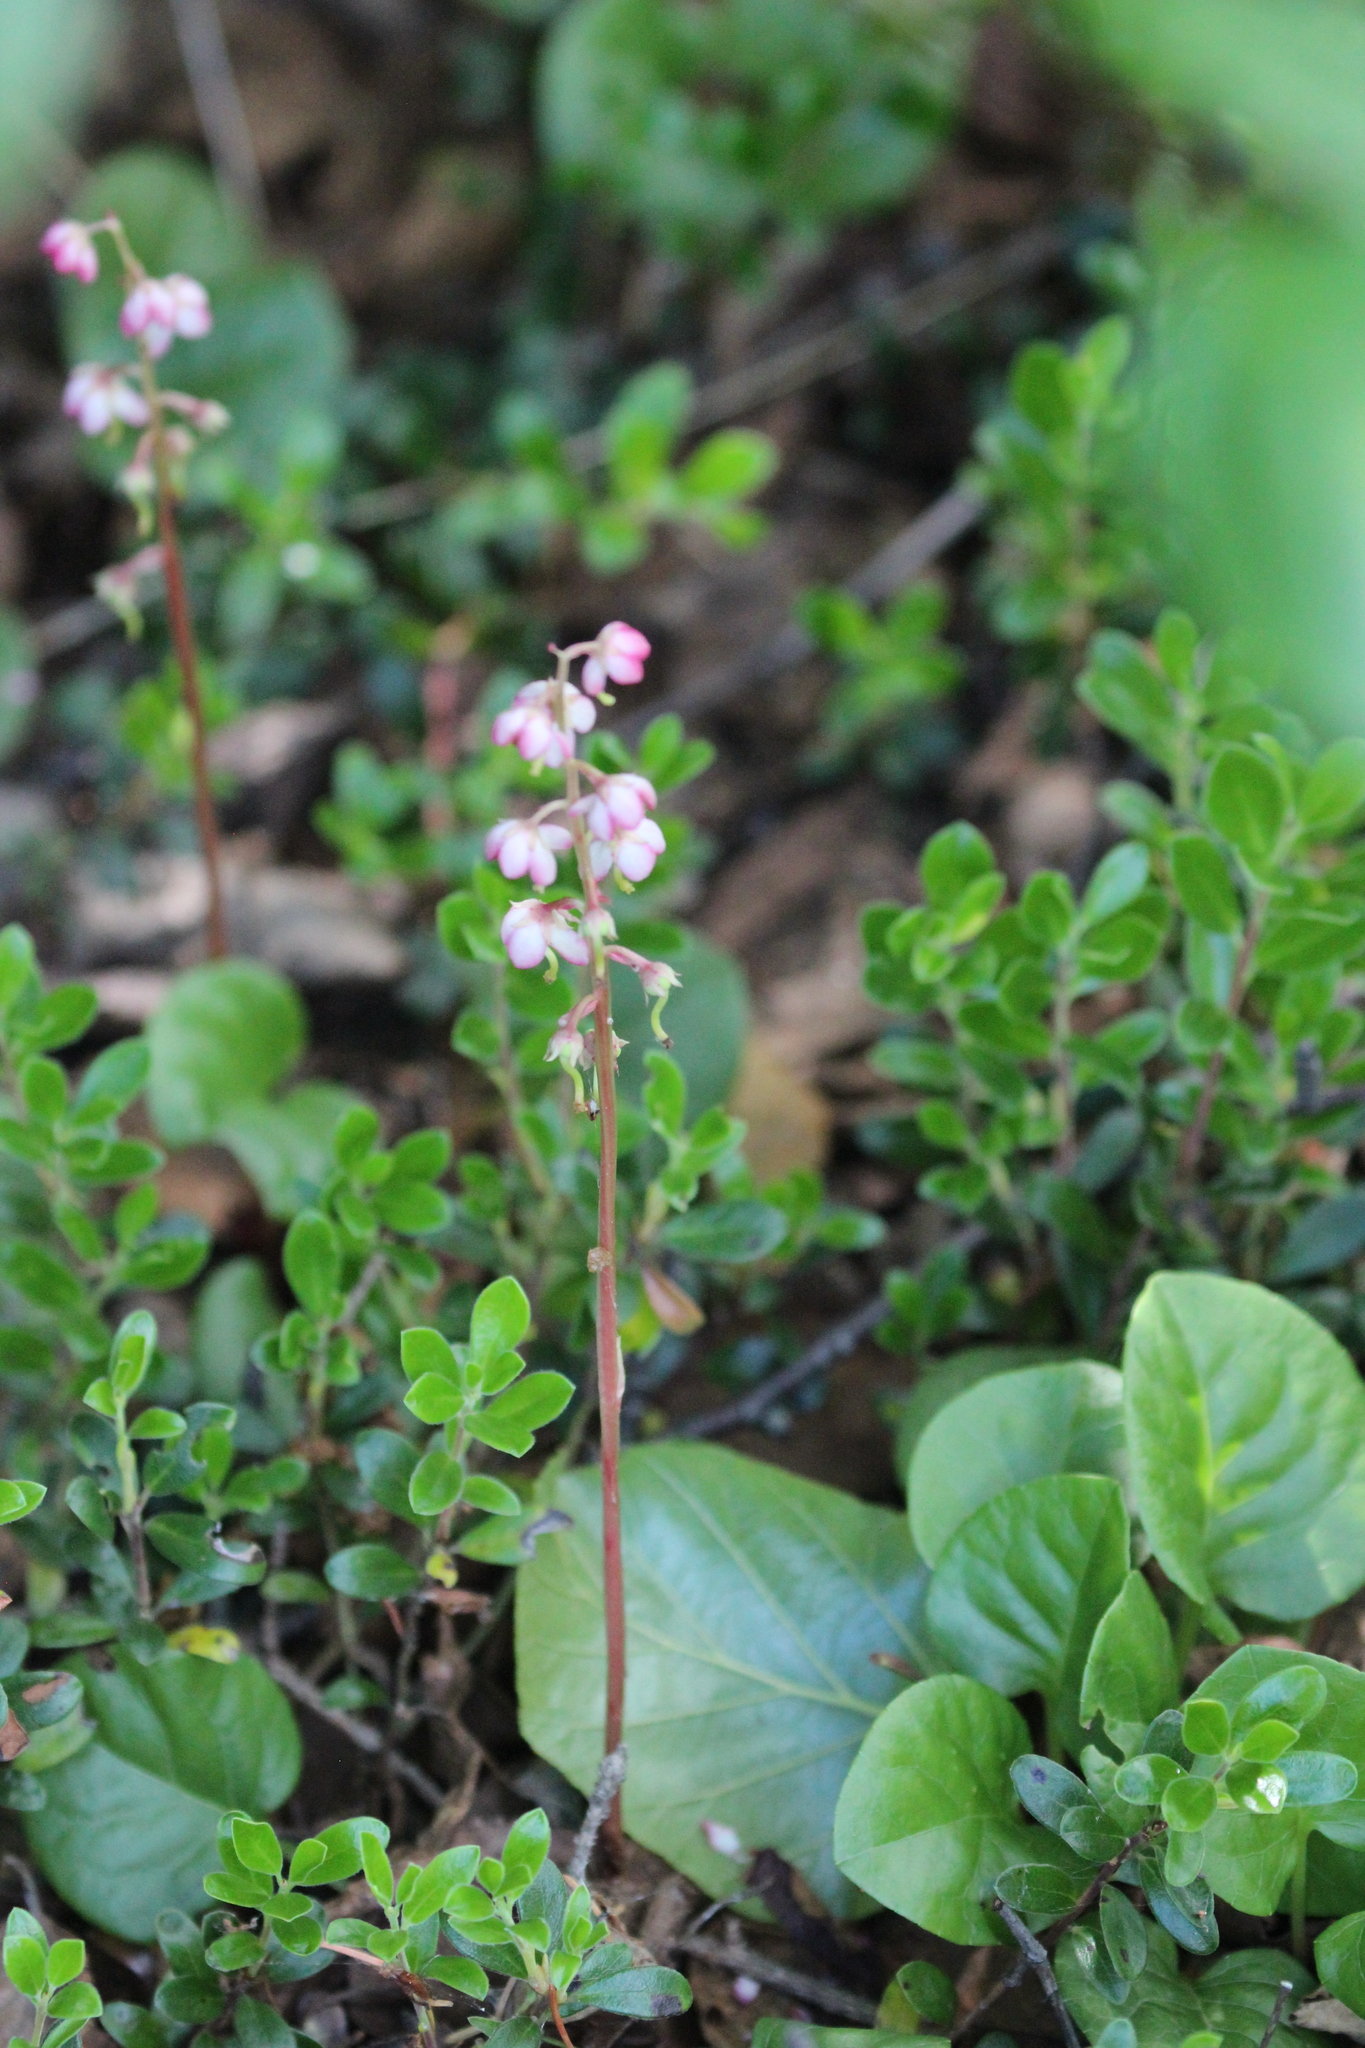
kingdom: Plantae
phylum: Tracheophyta
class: Magnoliopsida
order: Ericales
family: Ericaceae
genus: Pyrola
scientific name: Pyrola asarifolia
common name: Bog wintergreen
